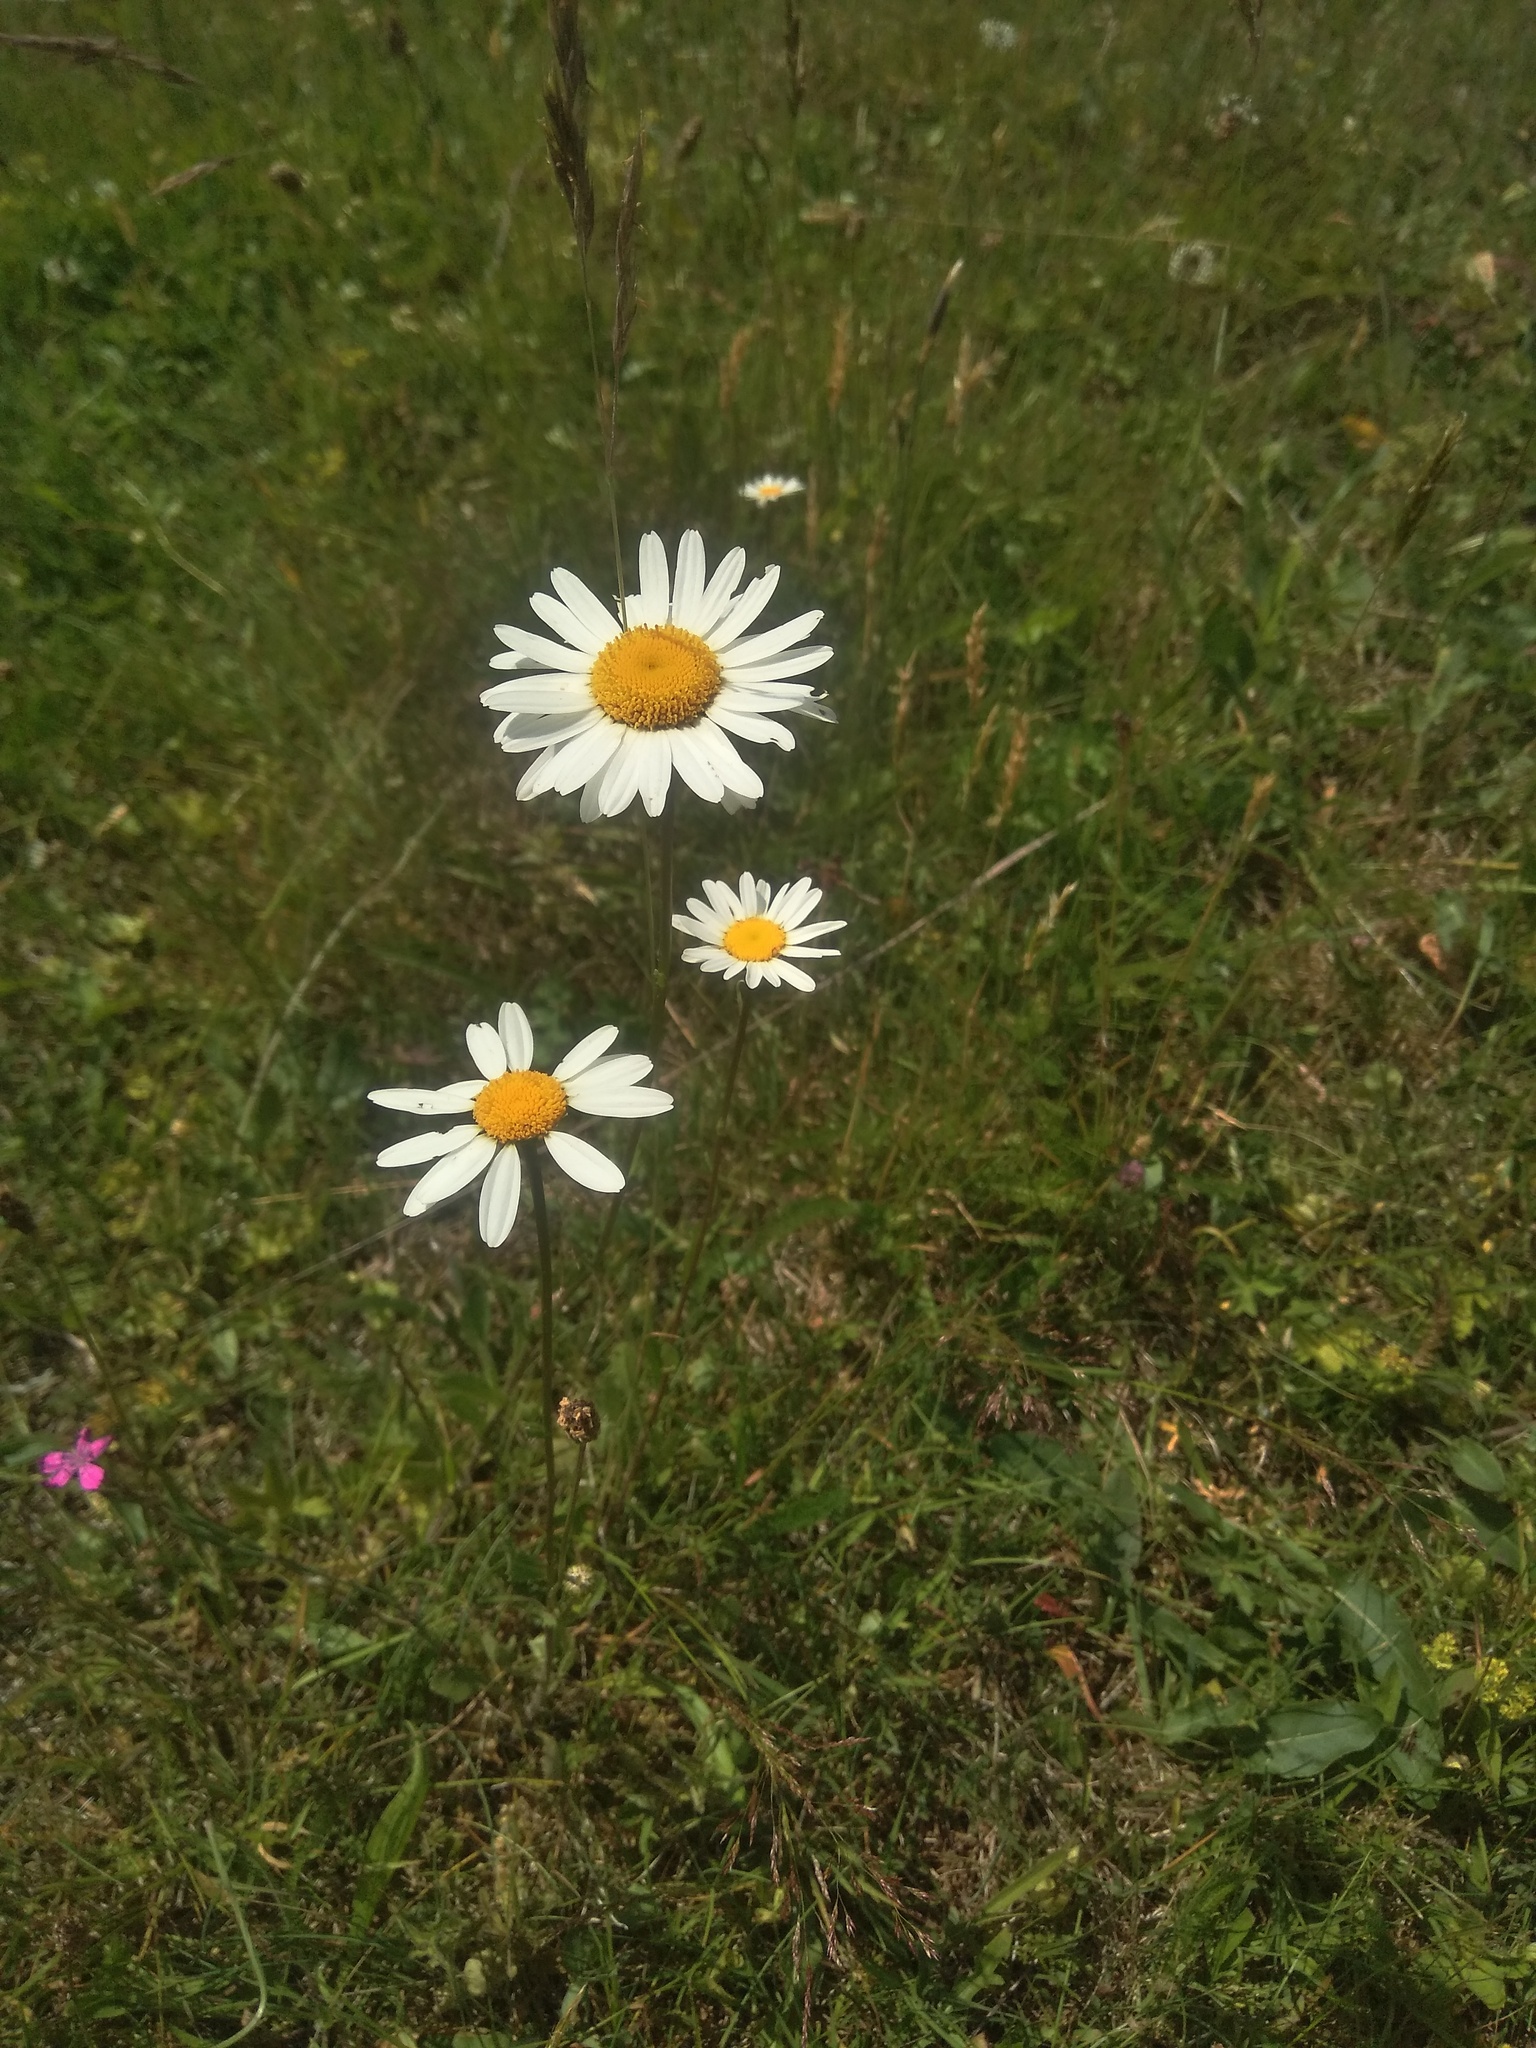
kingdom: Plantae
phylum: Tracheophyta
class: Magnoliopsida
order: Asterales
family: Asteraceae
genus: Leucanthemum
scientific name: Leucanthemum vulgare
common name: Oxeye daisy
